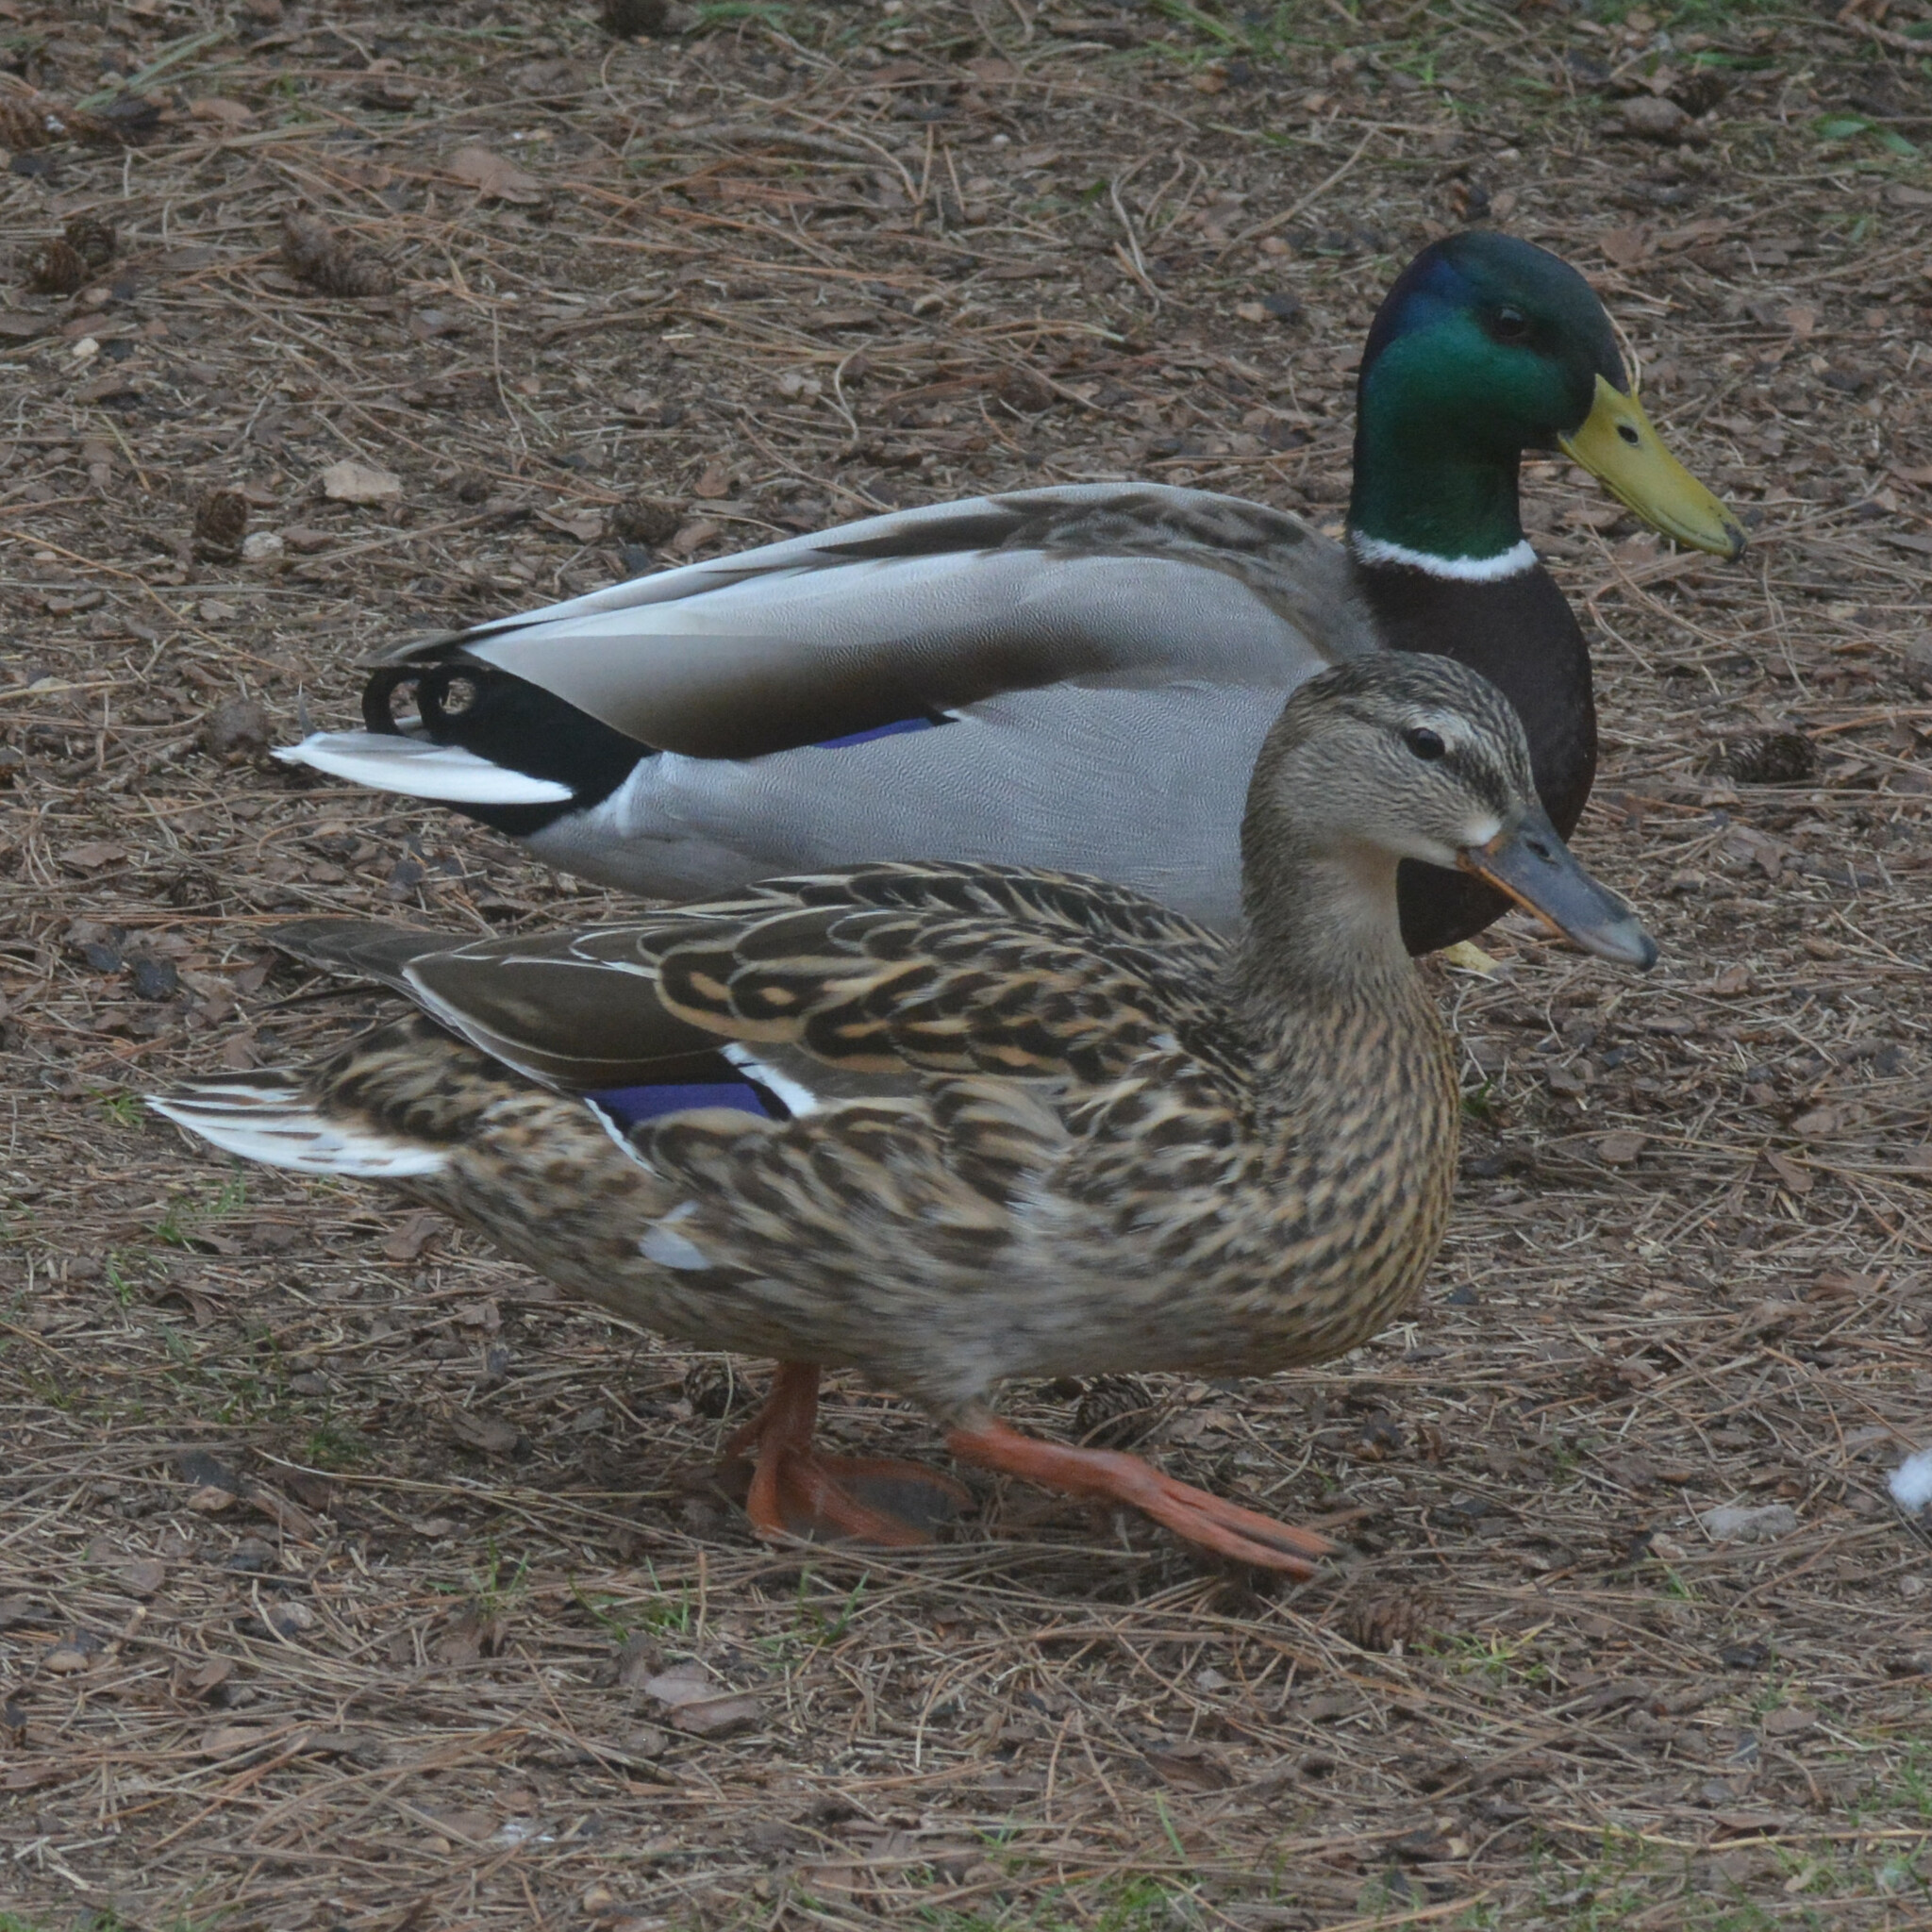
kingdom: Animalia
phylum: Chordata
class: Aves
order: Anseriformes
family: Anatidae
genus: Anas
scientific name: Anas platyrhynchos
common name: Mallard
